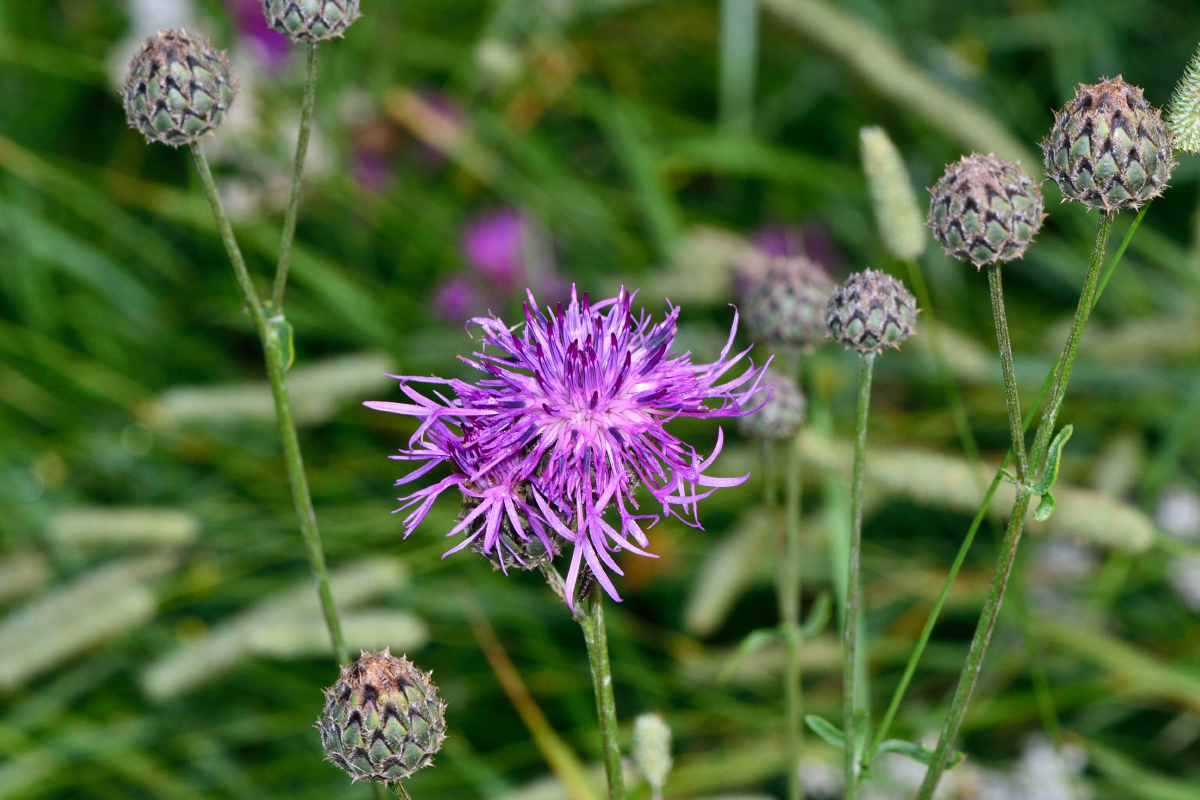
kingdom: Plantae
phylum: Tracheophyta
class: Magnoliopsida
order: Asterales
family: Asteraceae
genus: Centaurea
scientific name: Centaurea scabiosa
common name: Greater knapweed
